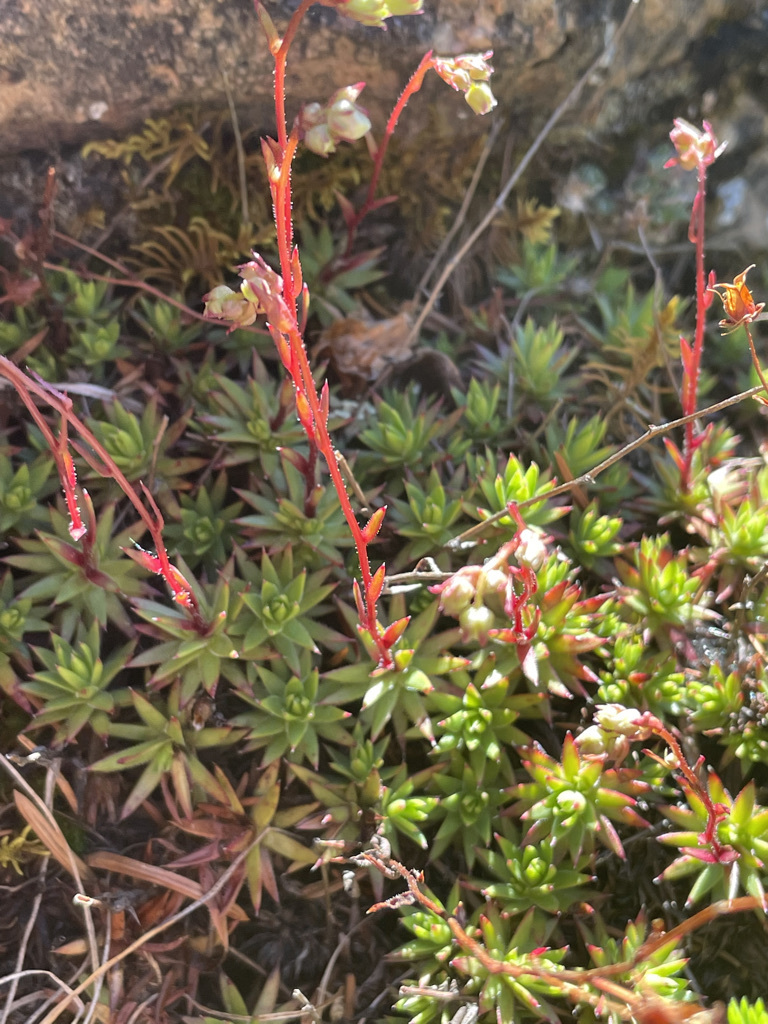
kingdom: Plantae
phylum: Tracheophyta
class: Magnoliopsida
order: Saxifragales
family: Saxifragaceae
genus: Saxifraga
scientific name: Saxifraga bronchialis
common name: Matted saxifrage
